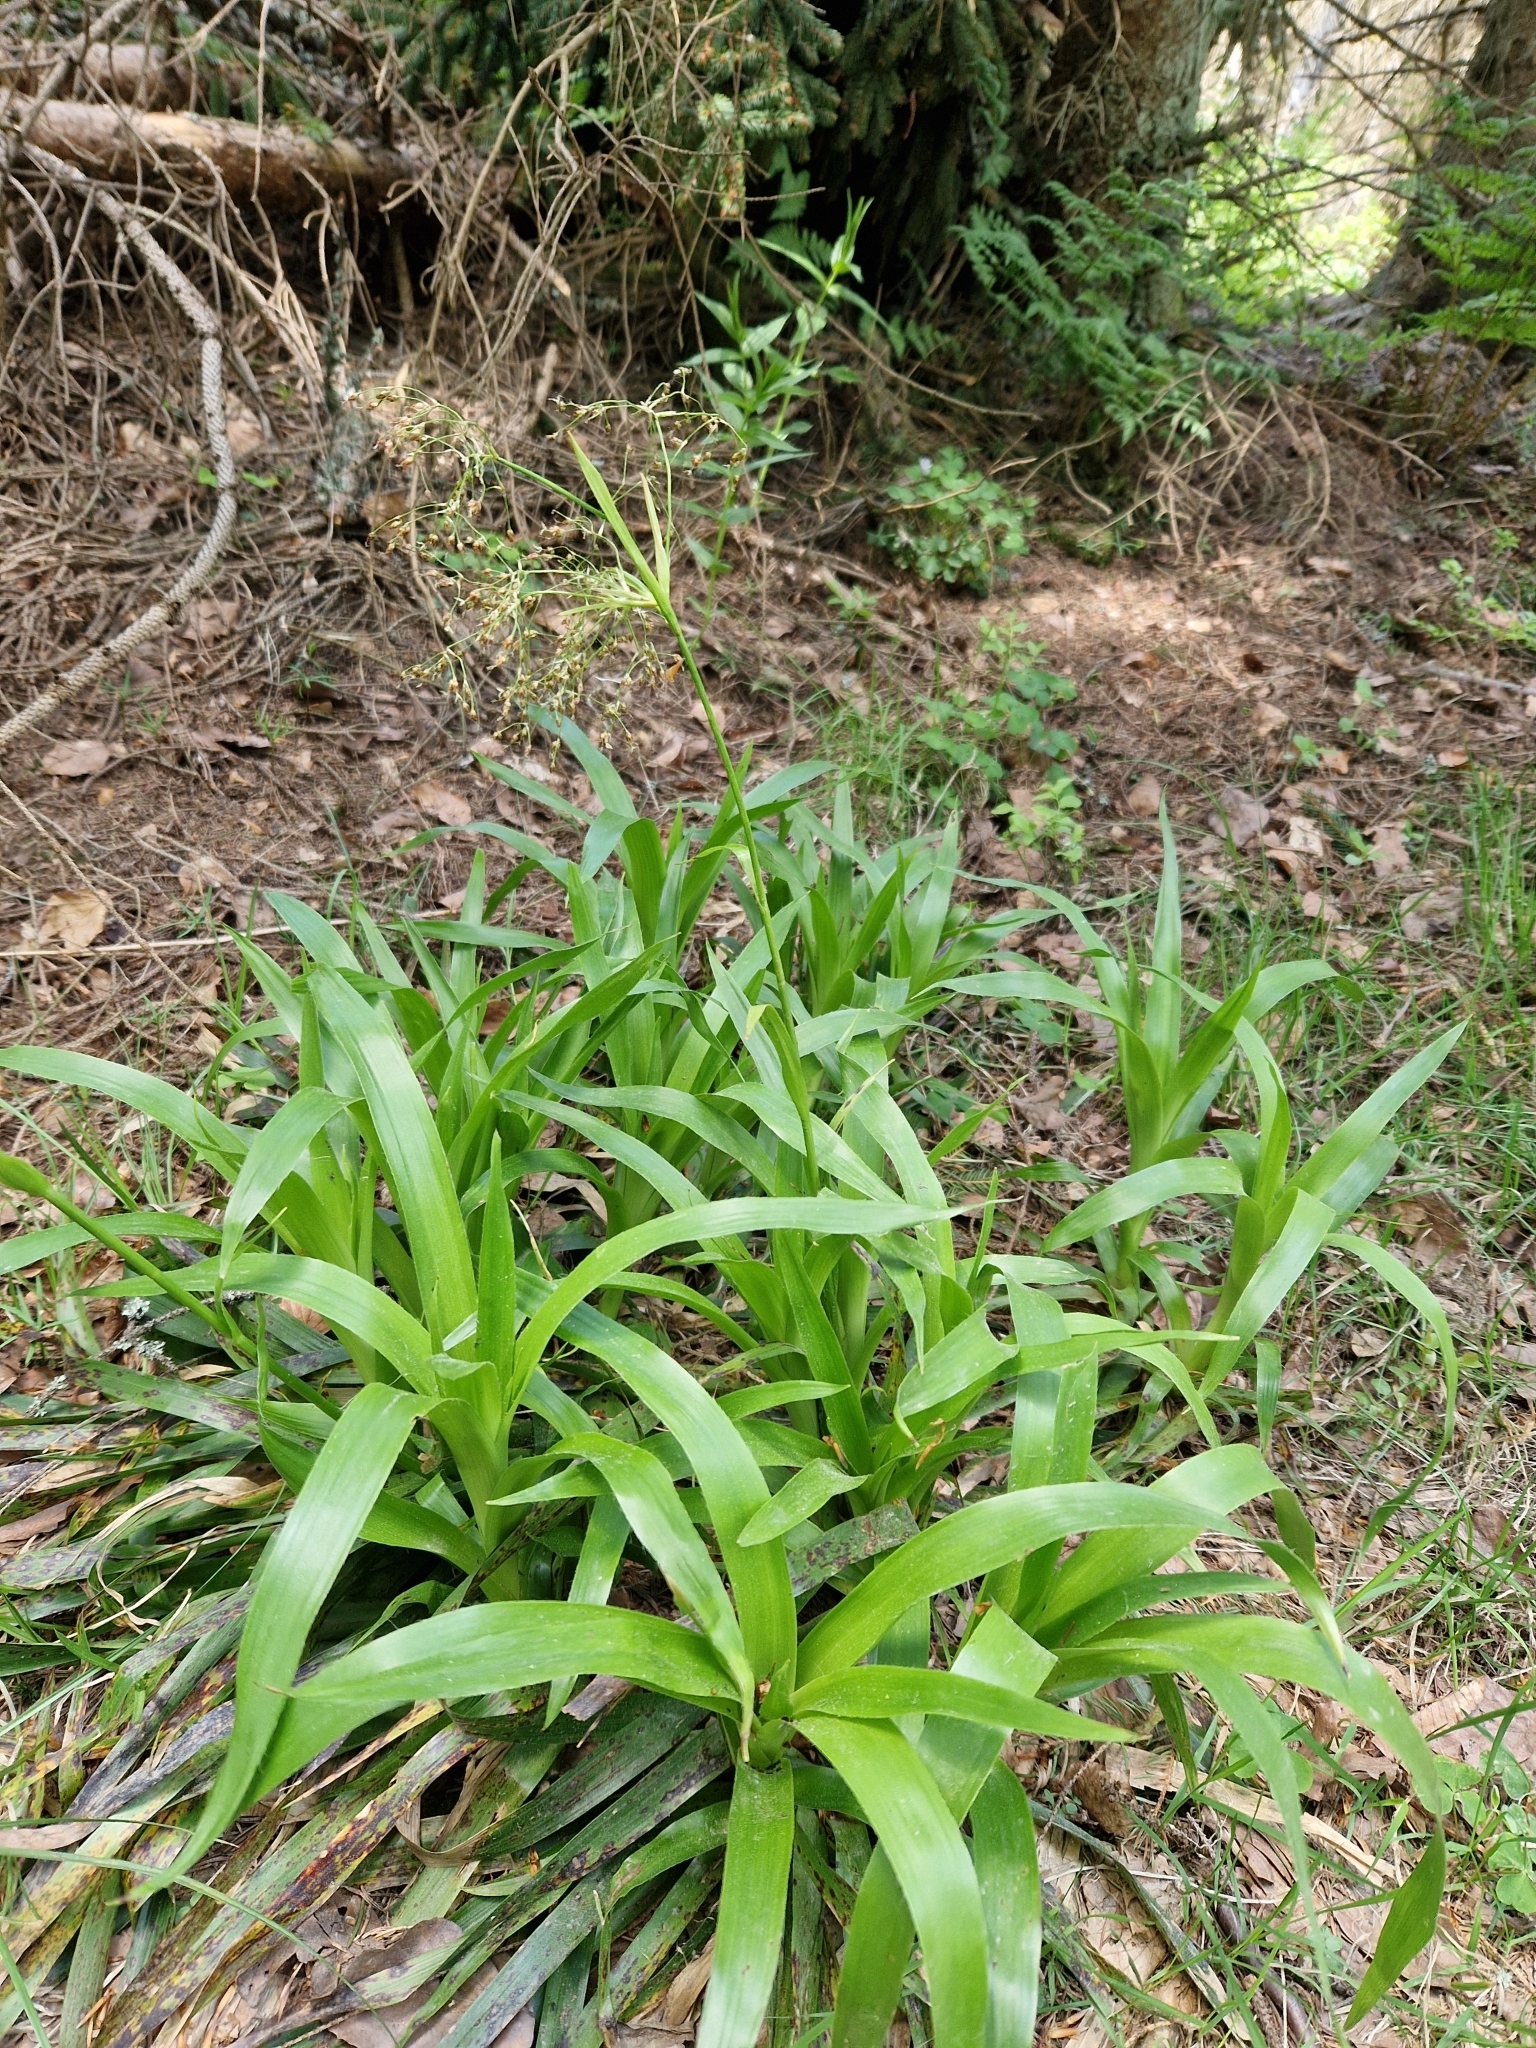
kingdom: Plantae
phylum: Tracheophyta
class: Liliopsida
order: Poales
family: Juncaceae
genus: Luzula
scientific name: Luzula sylvatica
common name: Great wood-rush
